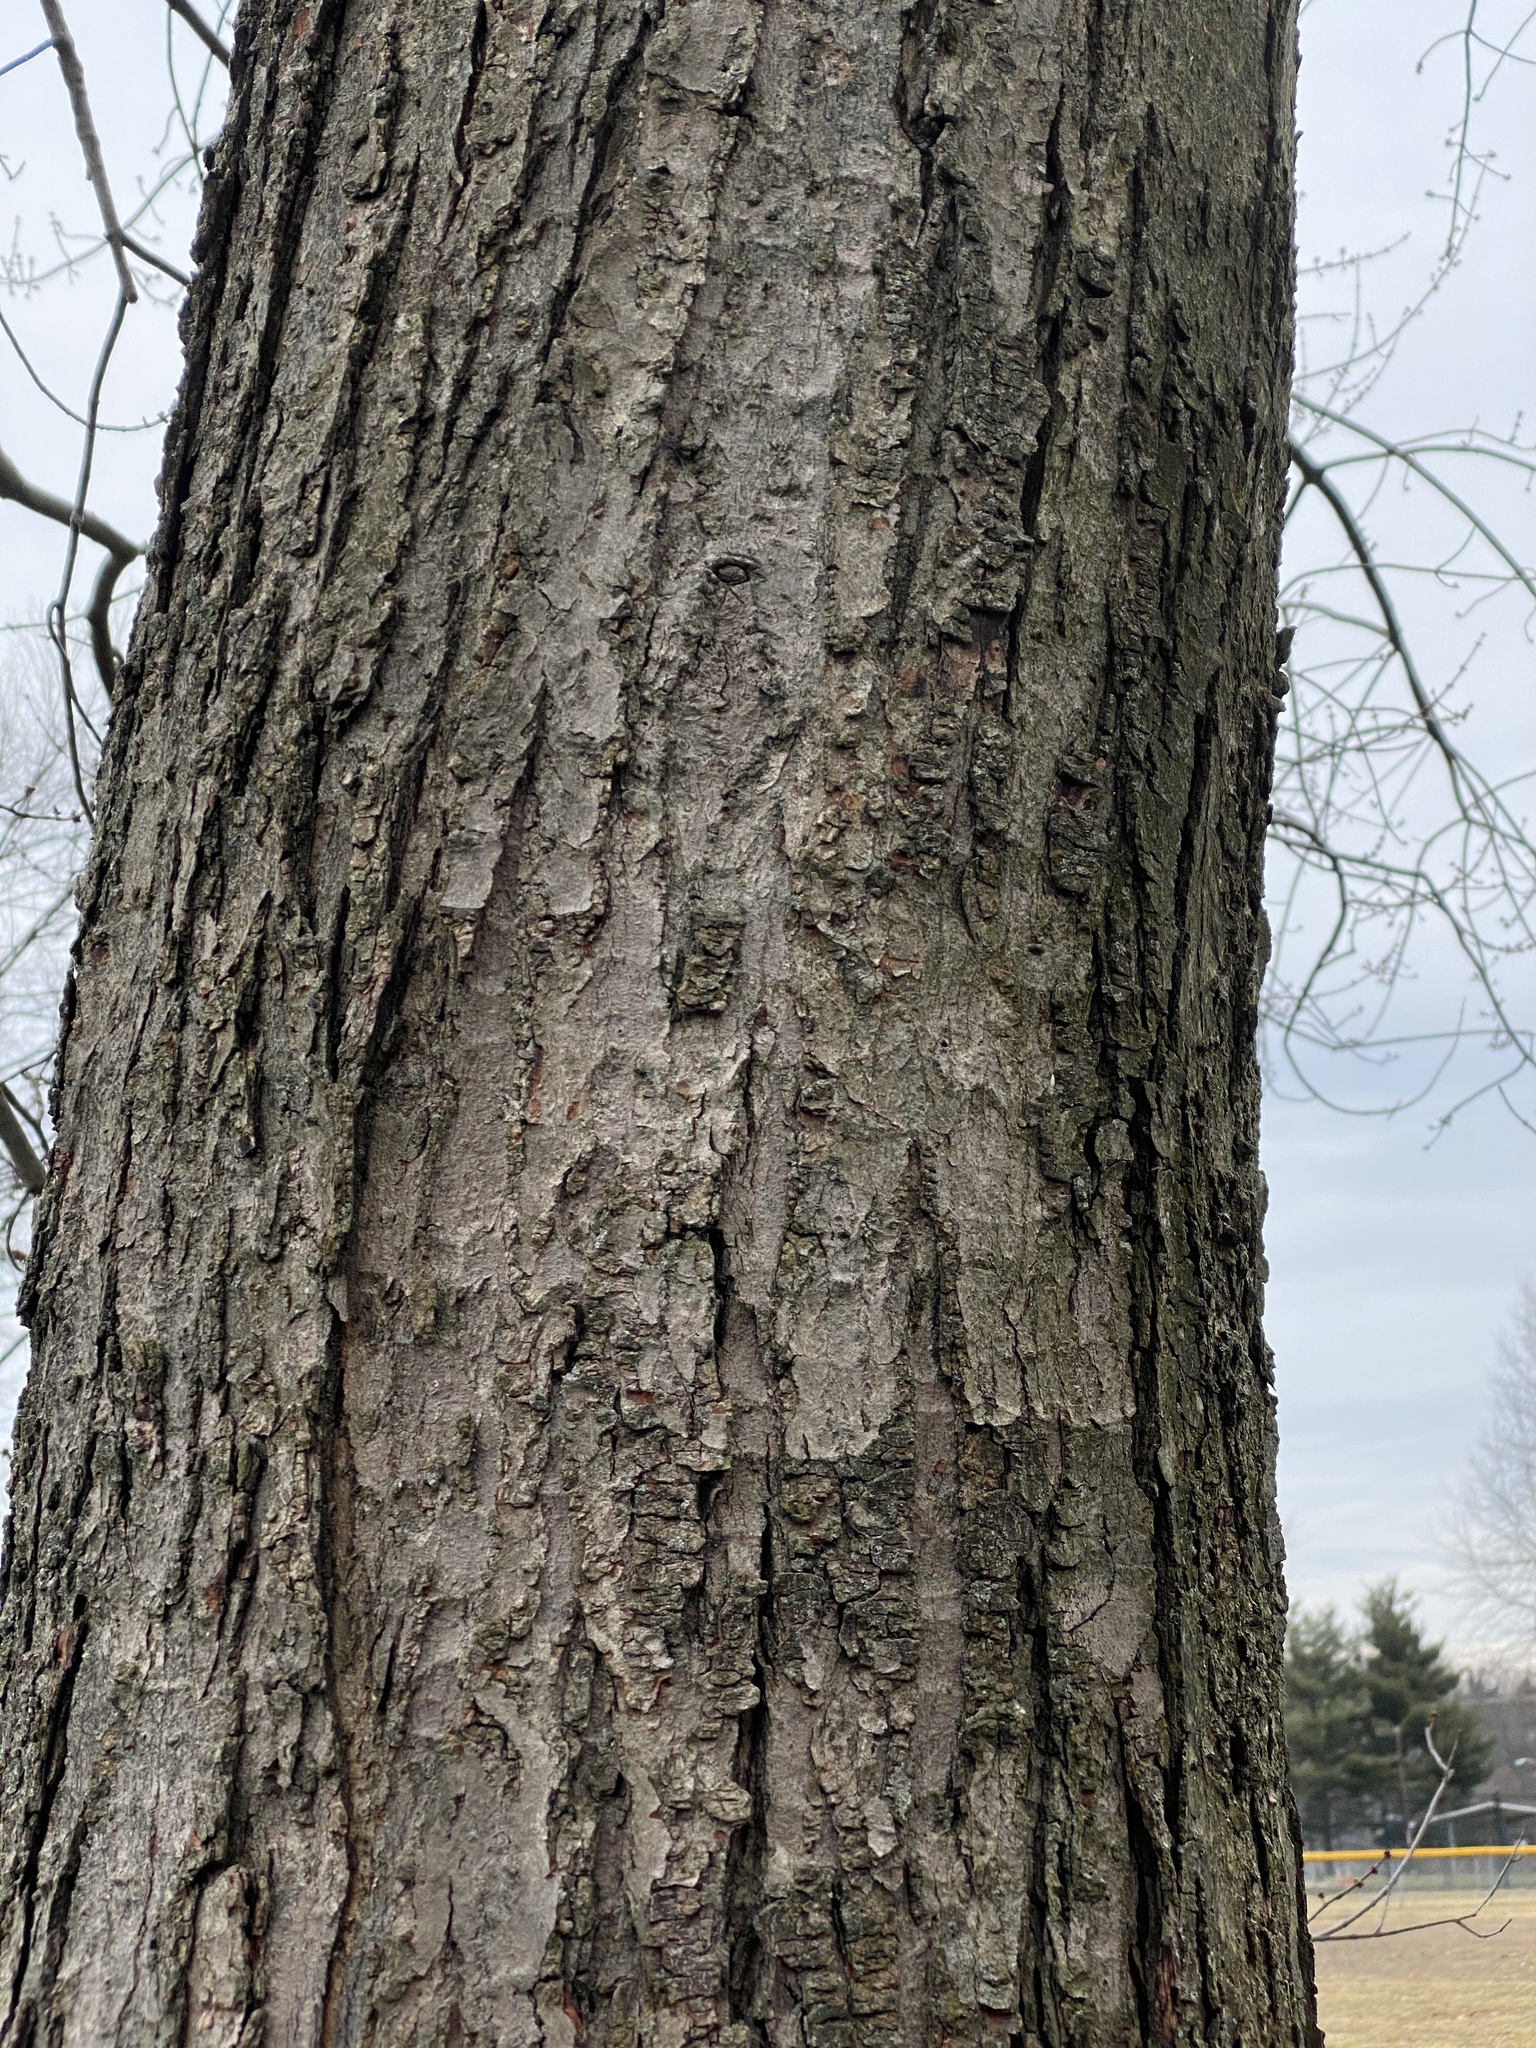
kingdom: Plantae
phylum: Tracheophyta
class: Magnoliopsida
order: Sapindales
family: Sapindaceae
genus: Acer
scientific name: Acer saccharinum
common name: Silver maple
